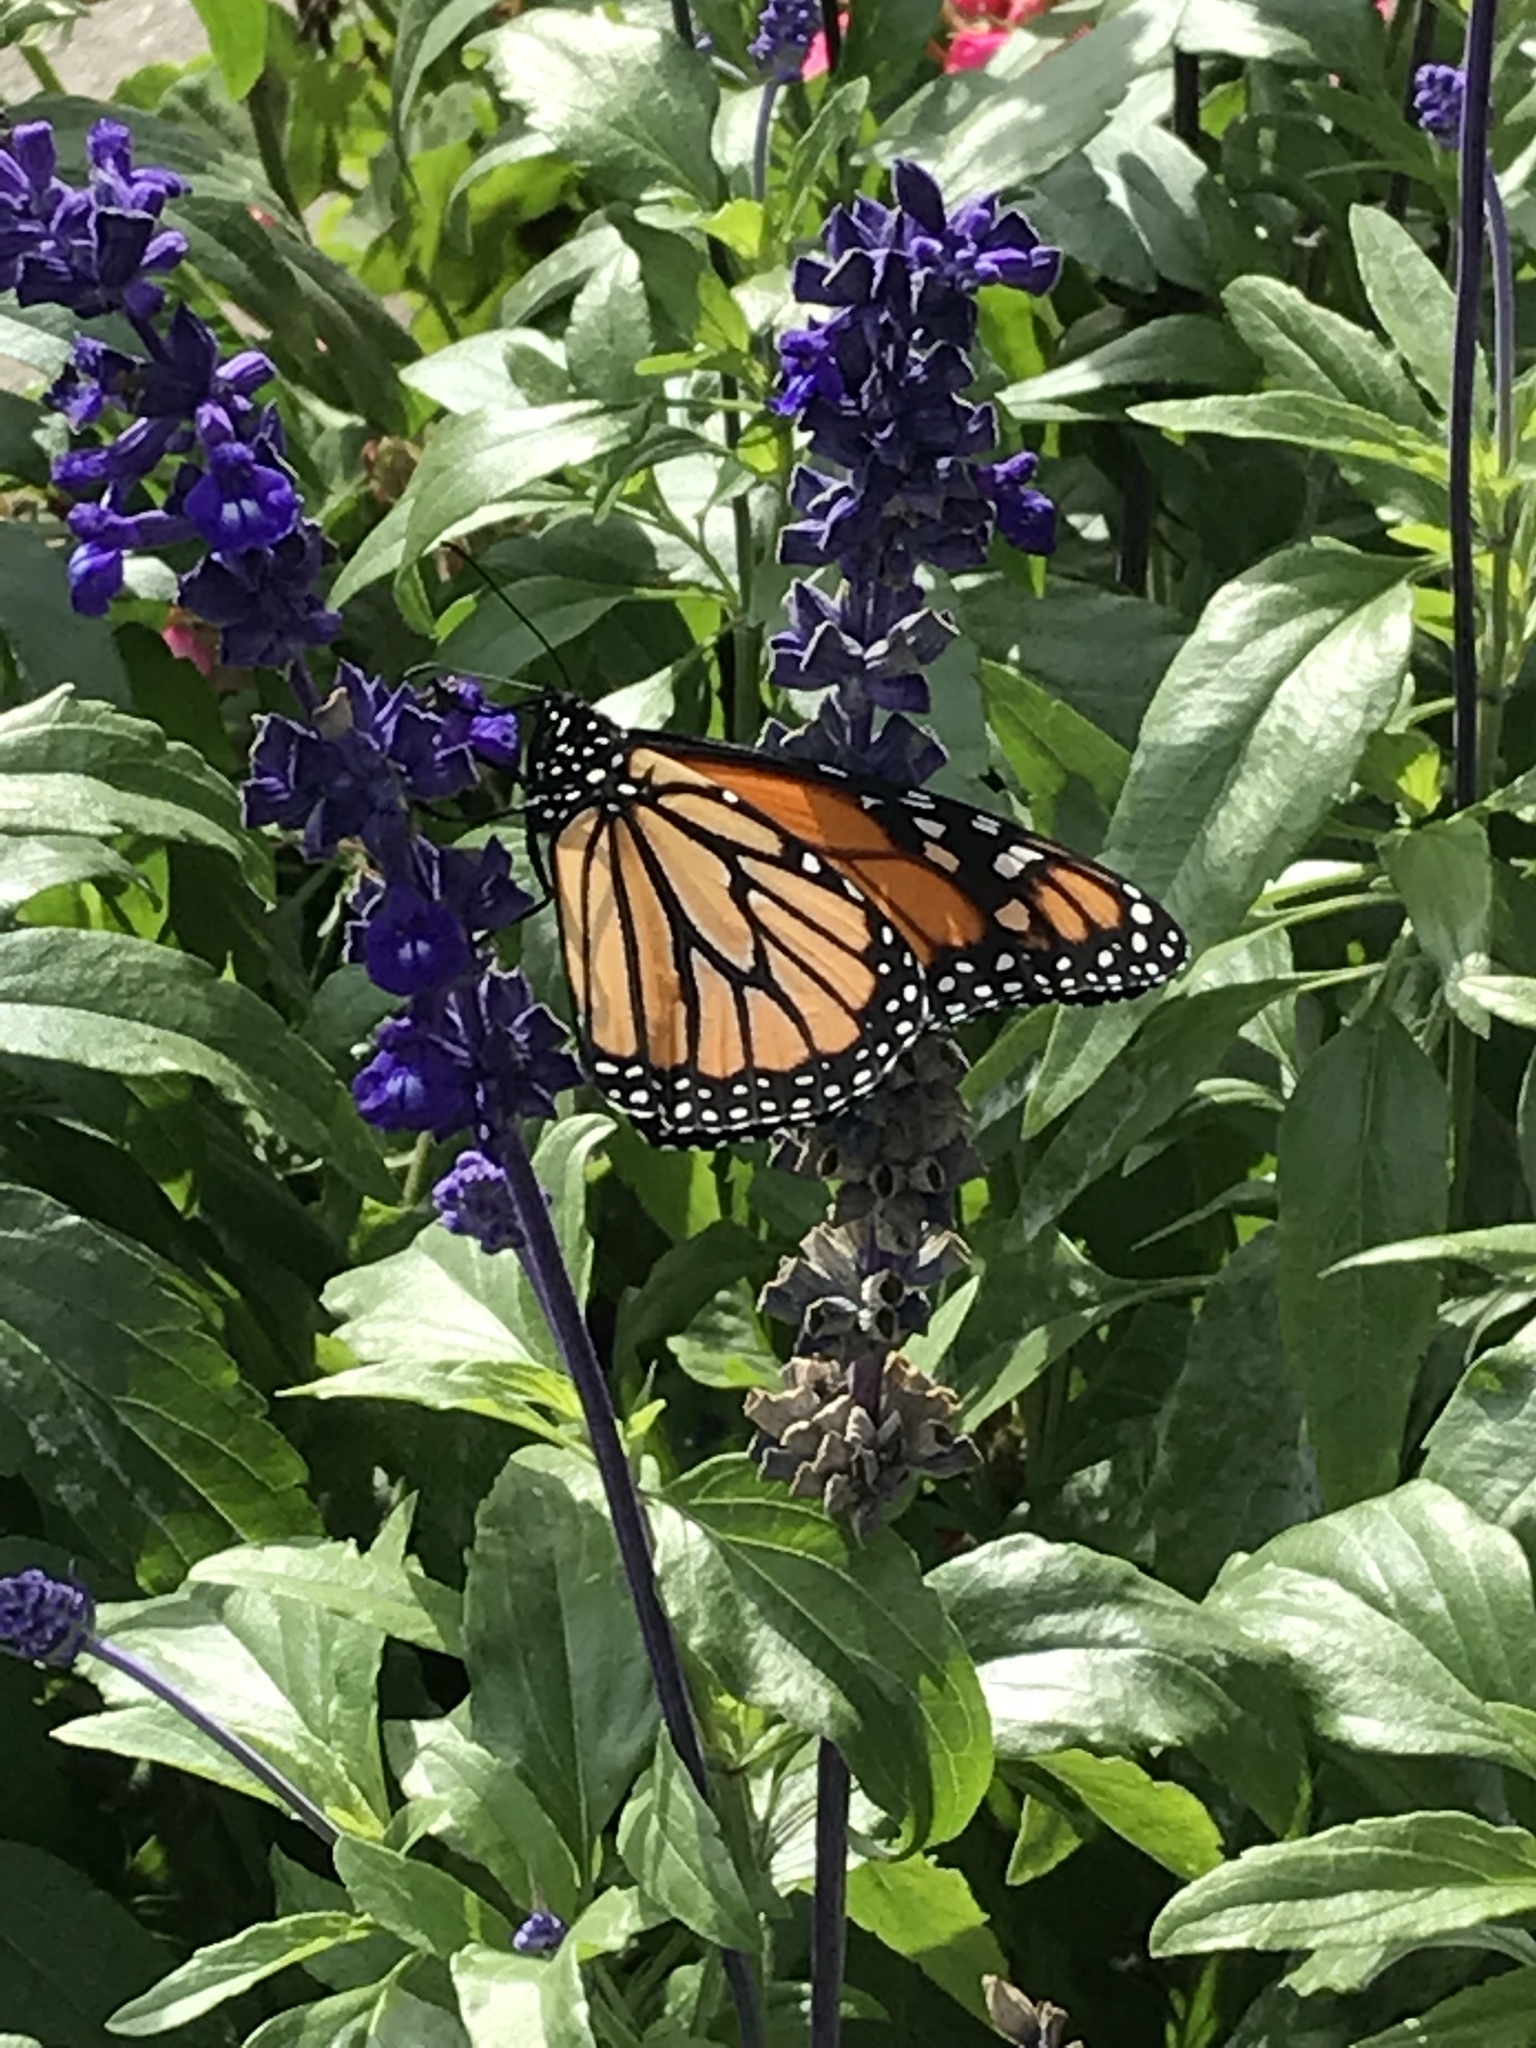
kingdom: Animalia
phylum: Arthropoda
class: Insecta
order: Lepidoptera
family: Nymphalidae
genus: Danaus
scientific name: Danaus plexippus
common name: Monarch
